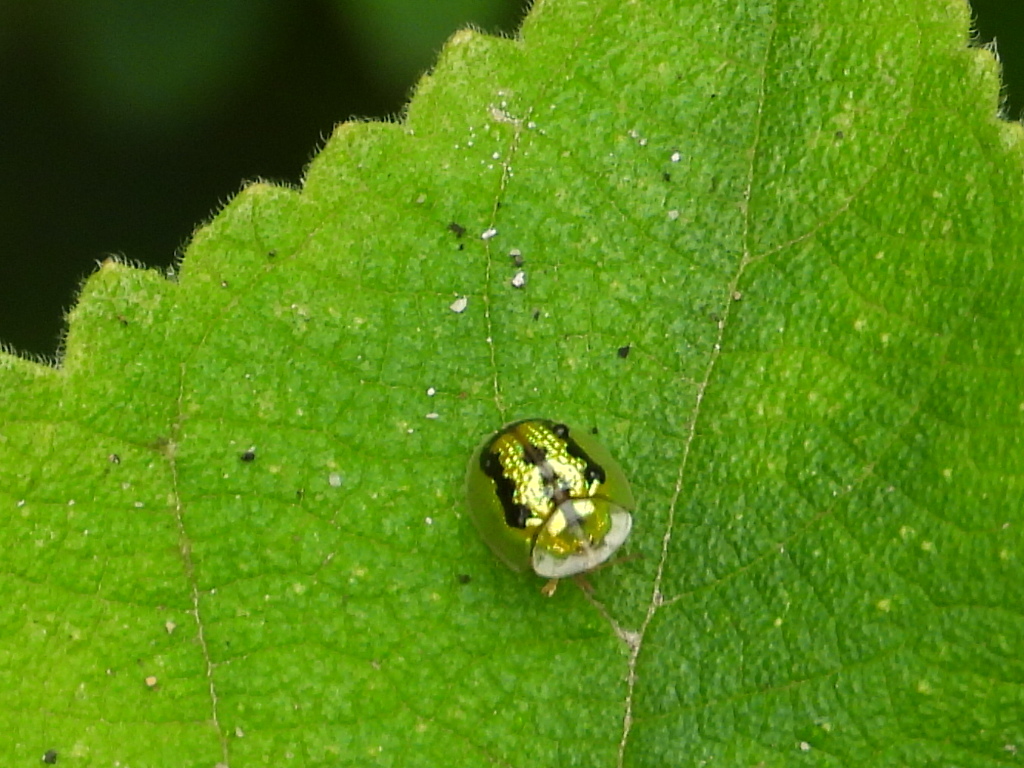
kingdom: Animalia
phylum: Arthropoda
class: Insecta
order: Coleoptera
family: Chrysomelidae
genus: Cassida
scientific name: Cassida circumdata
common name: Tortoise beetle
